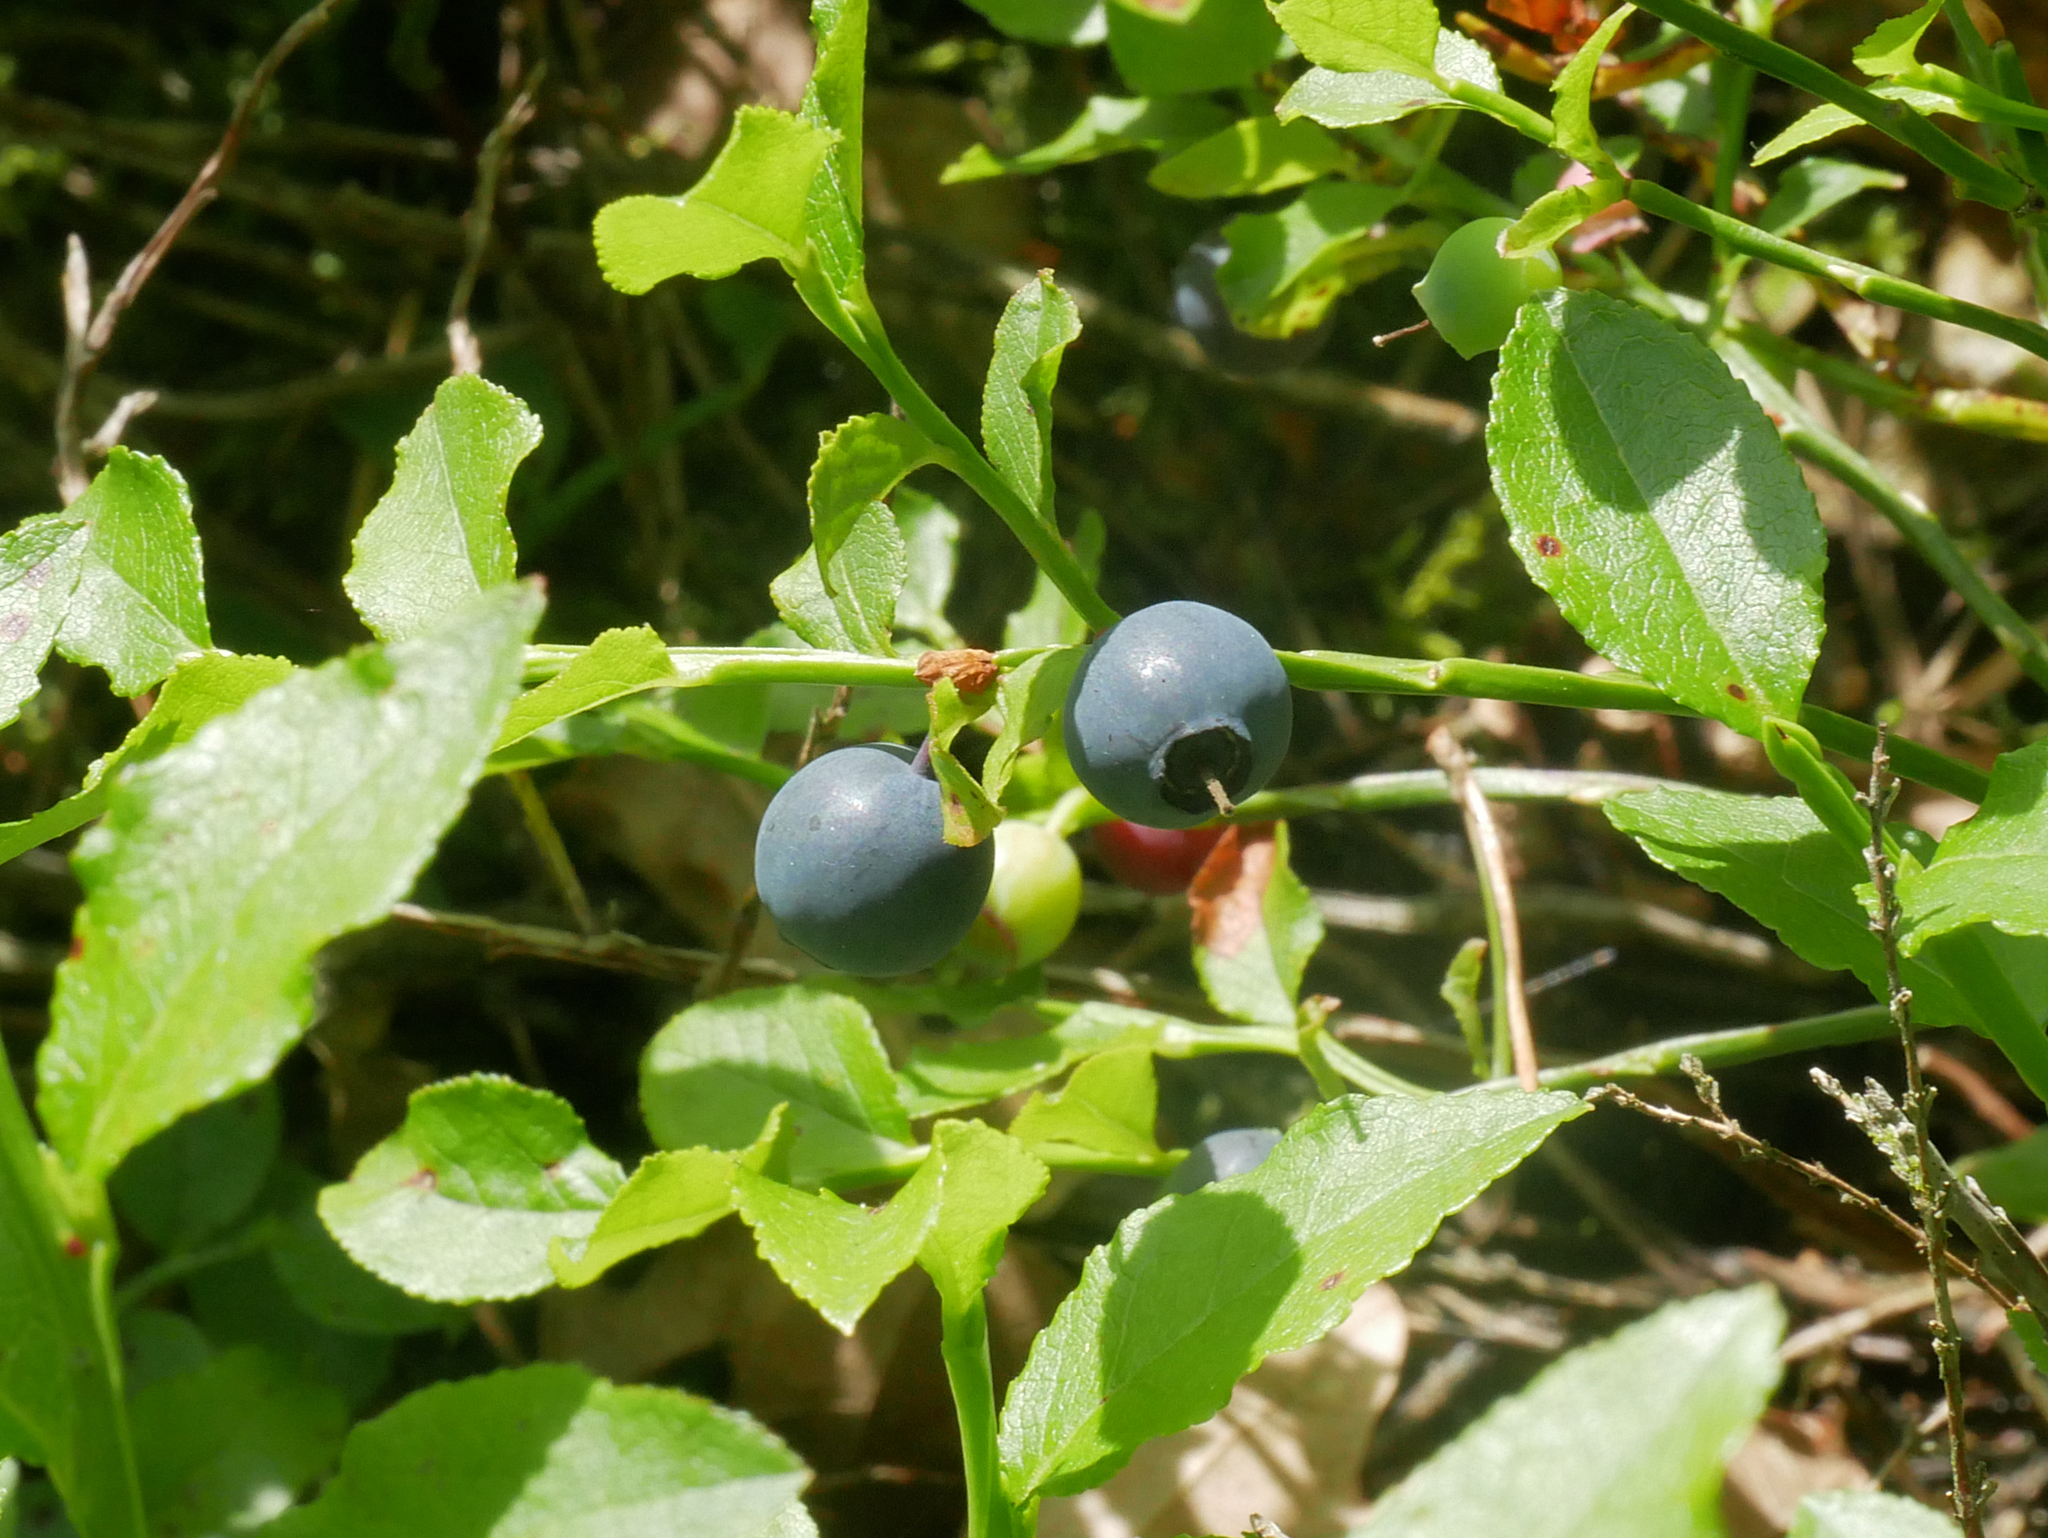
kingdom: Plantae
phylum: Tracheophyta
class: Magnoliopsida
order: Ericales
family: Ericaceae
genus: Vaccinium
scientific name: Vaccinium myrtillus
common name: Bilberry
